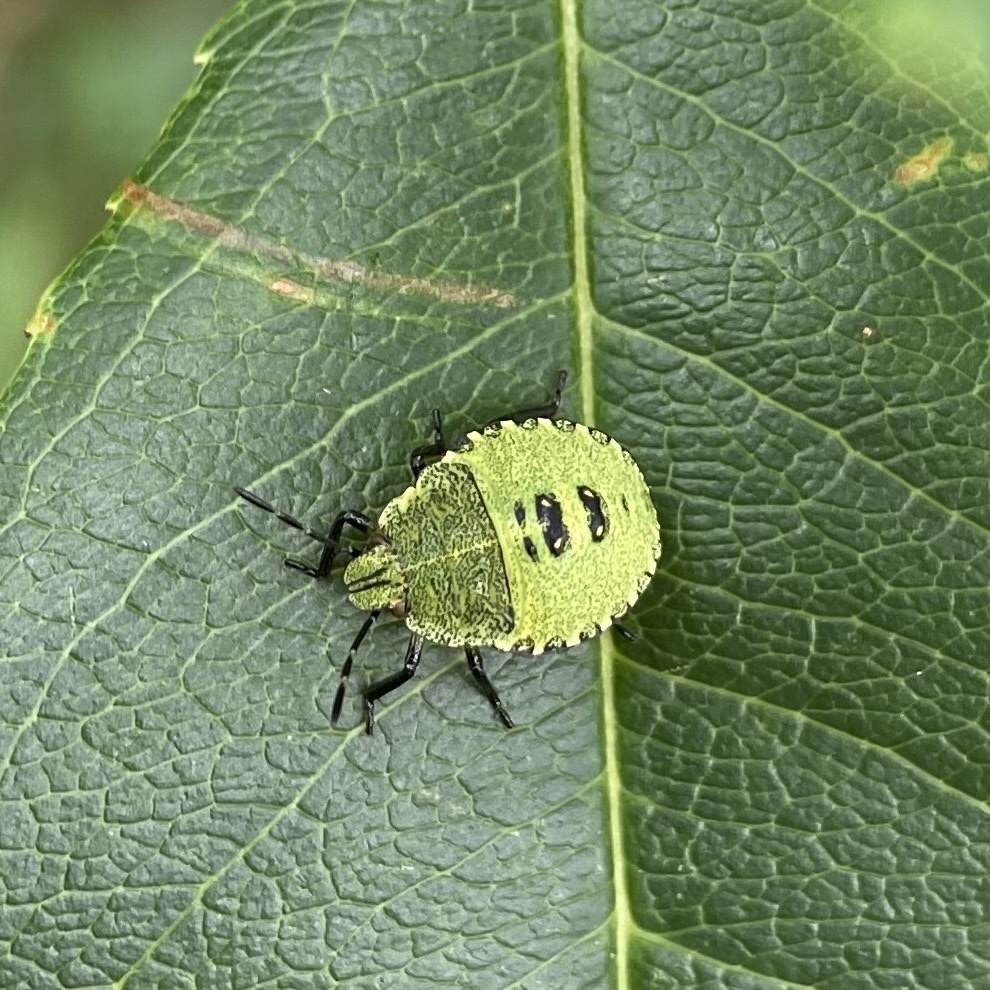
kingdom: Animalia
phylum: Arthropoda
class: Insecta
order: Hemiptera
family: Pentatomidae
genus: Palomena
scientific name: Palomena prasina
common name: Green shieldbug
